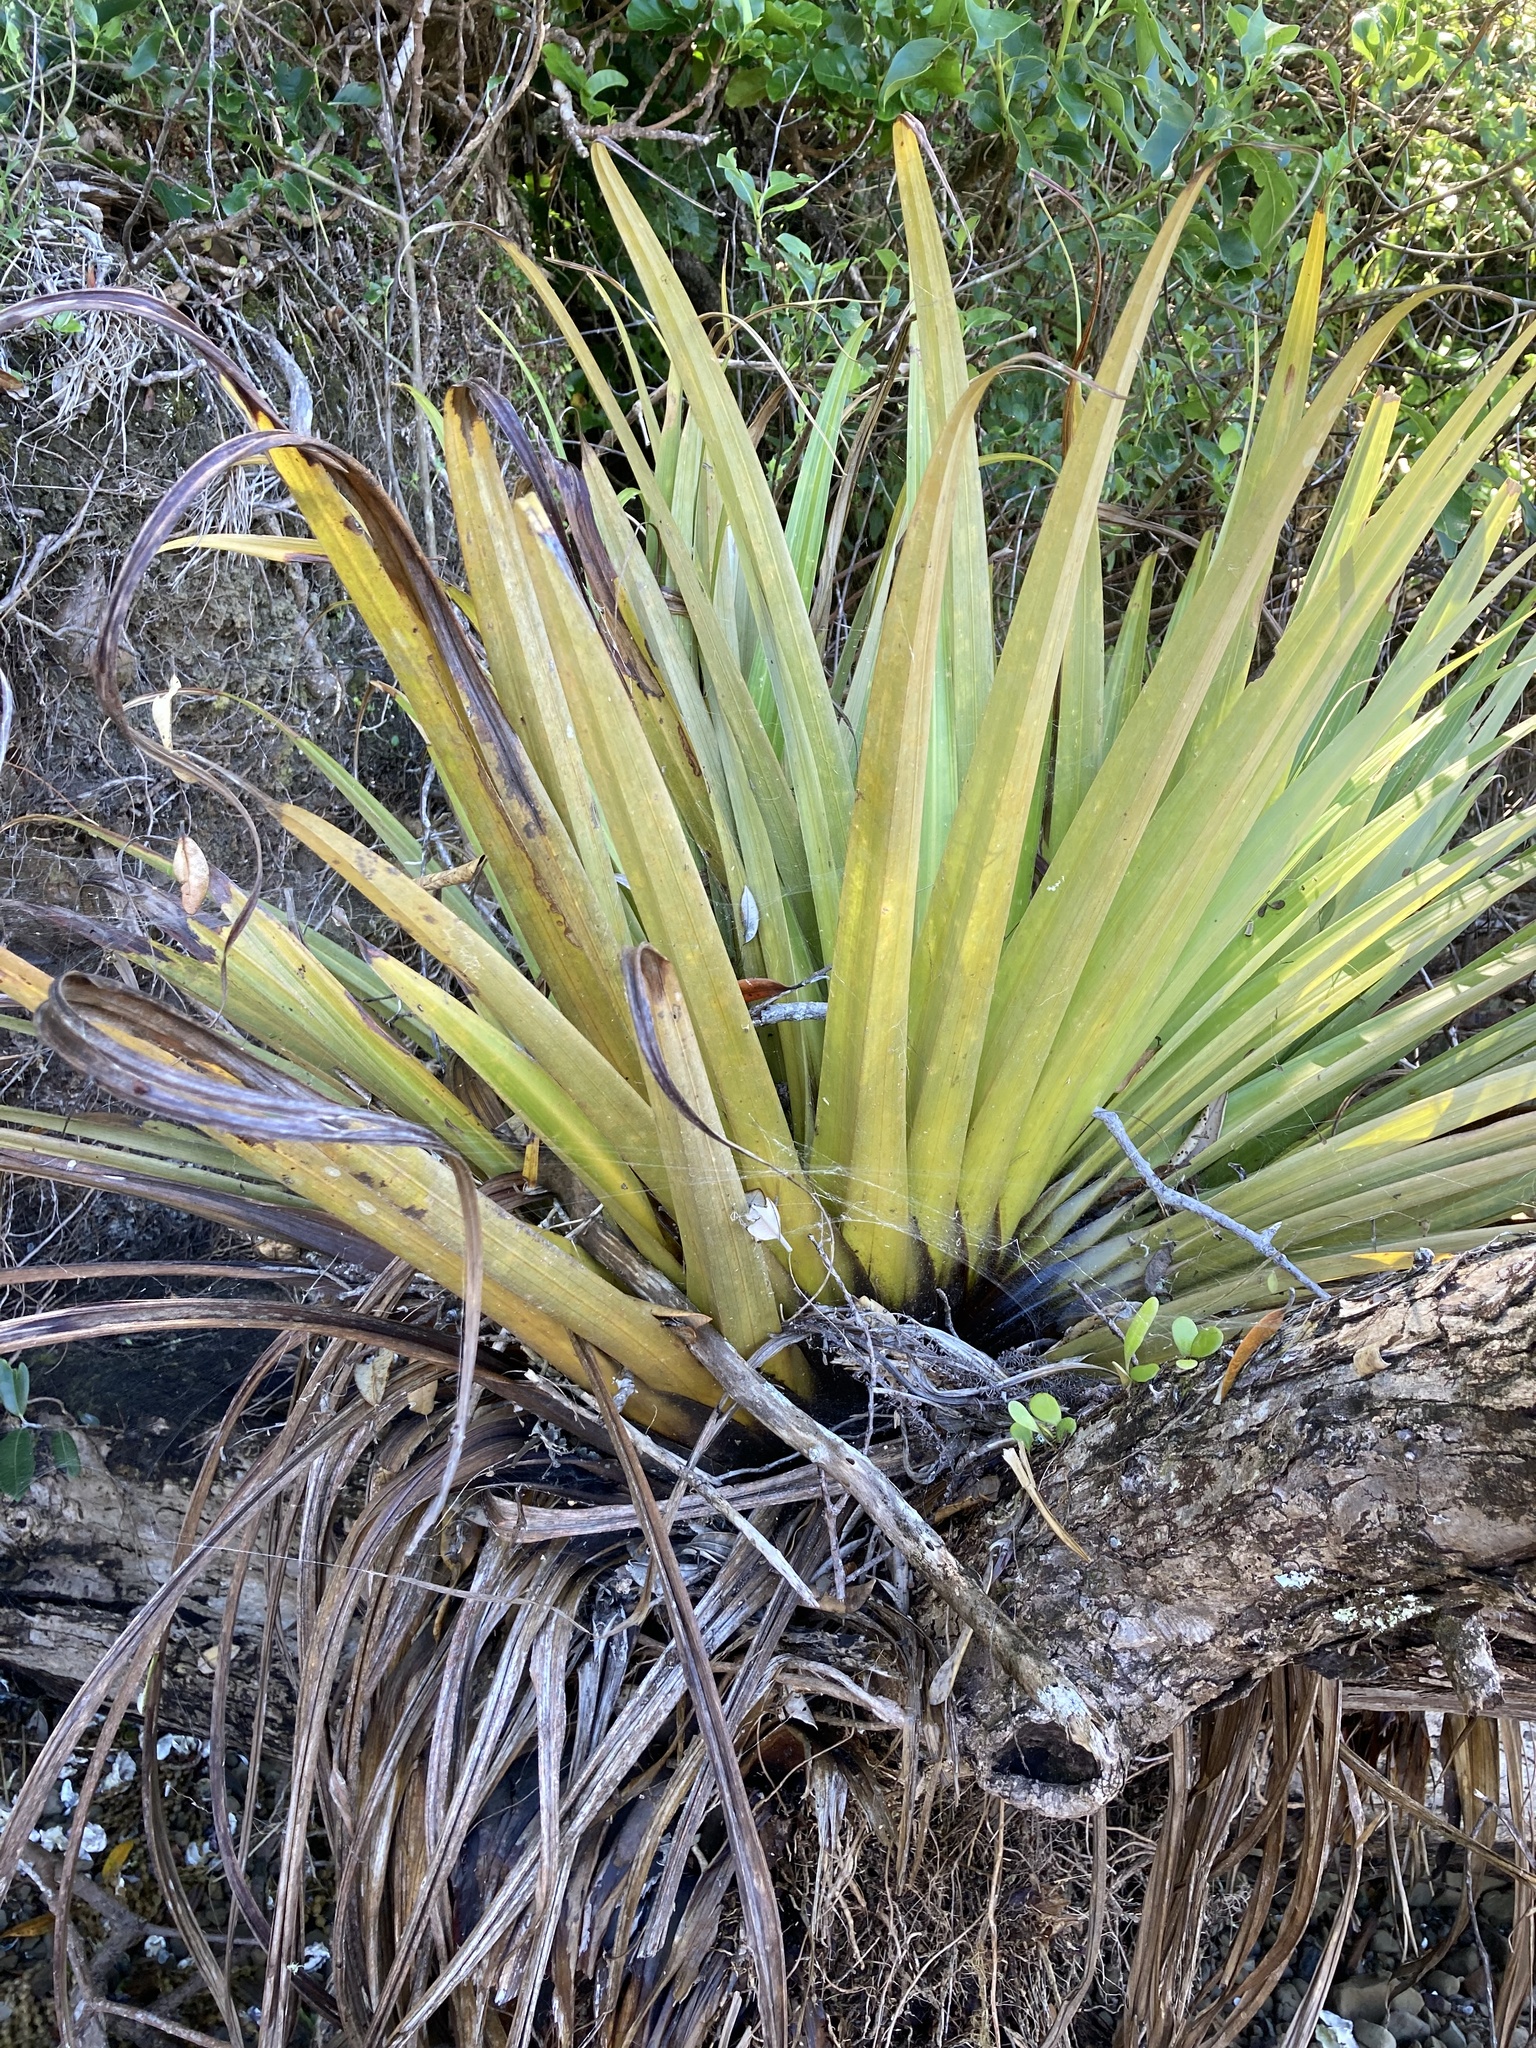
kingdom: Plantae
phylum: Tracheophyta
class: Liliopsida
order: Asparagales
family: Asteliaceae
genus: Astelia
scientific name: Astelia hastata
